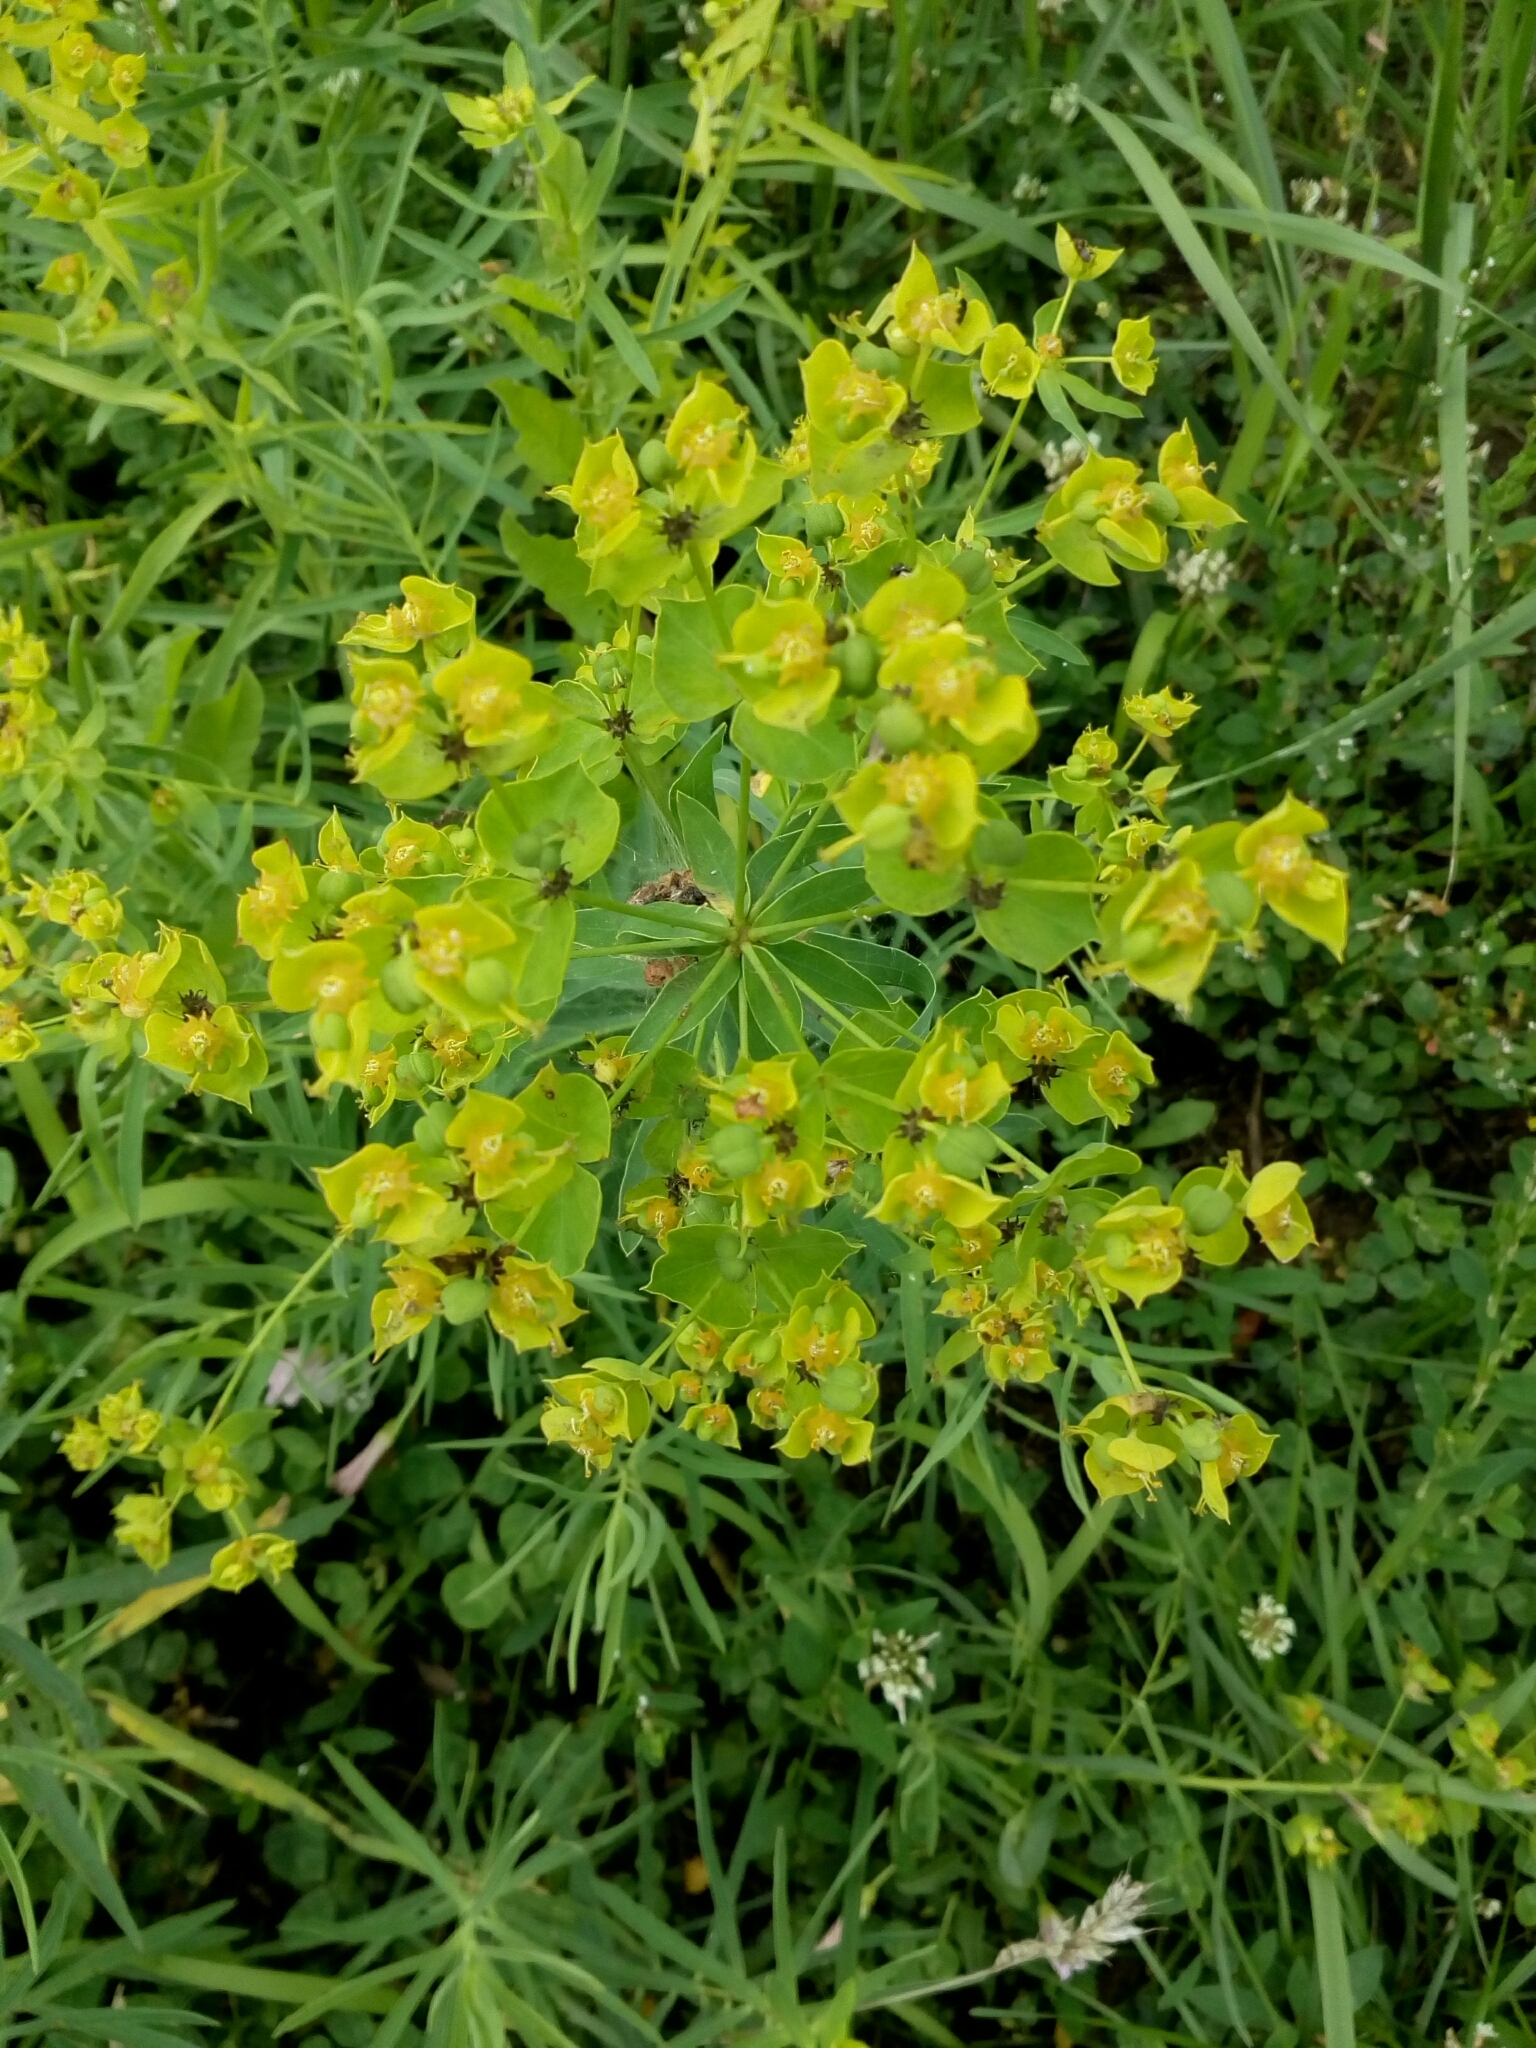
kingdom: Plantae
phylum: Tracheophyta
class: Magnoliopsida
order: Malpighiales
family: Euphorbiaceae
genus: Euphorbia
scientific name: Euphorbia virgata
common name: Leafy spurge
